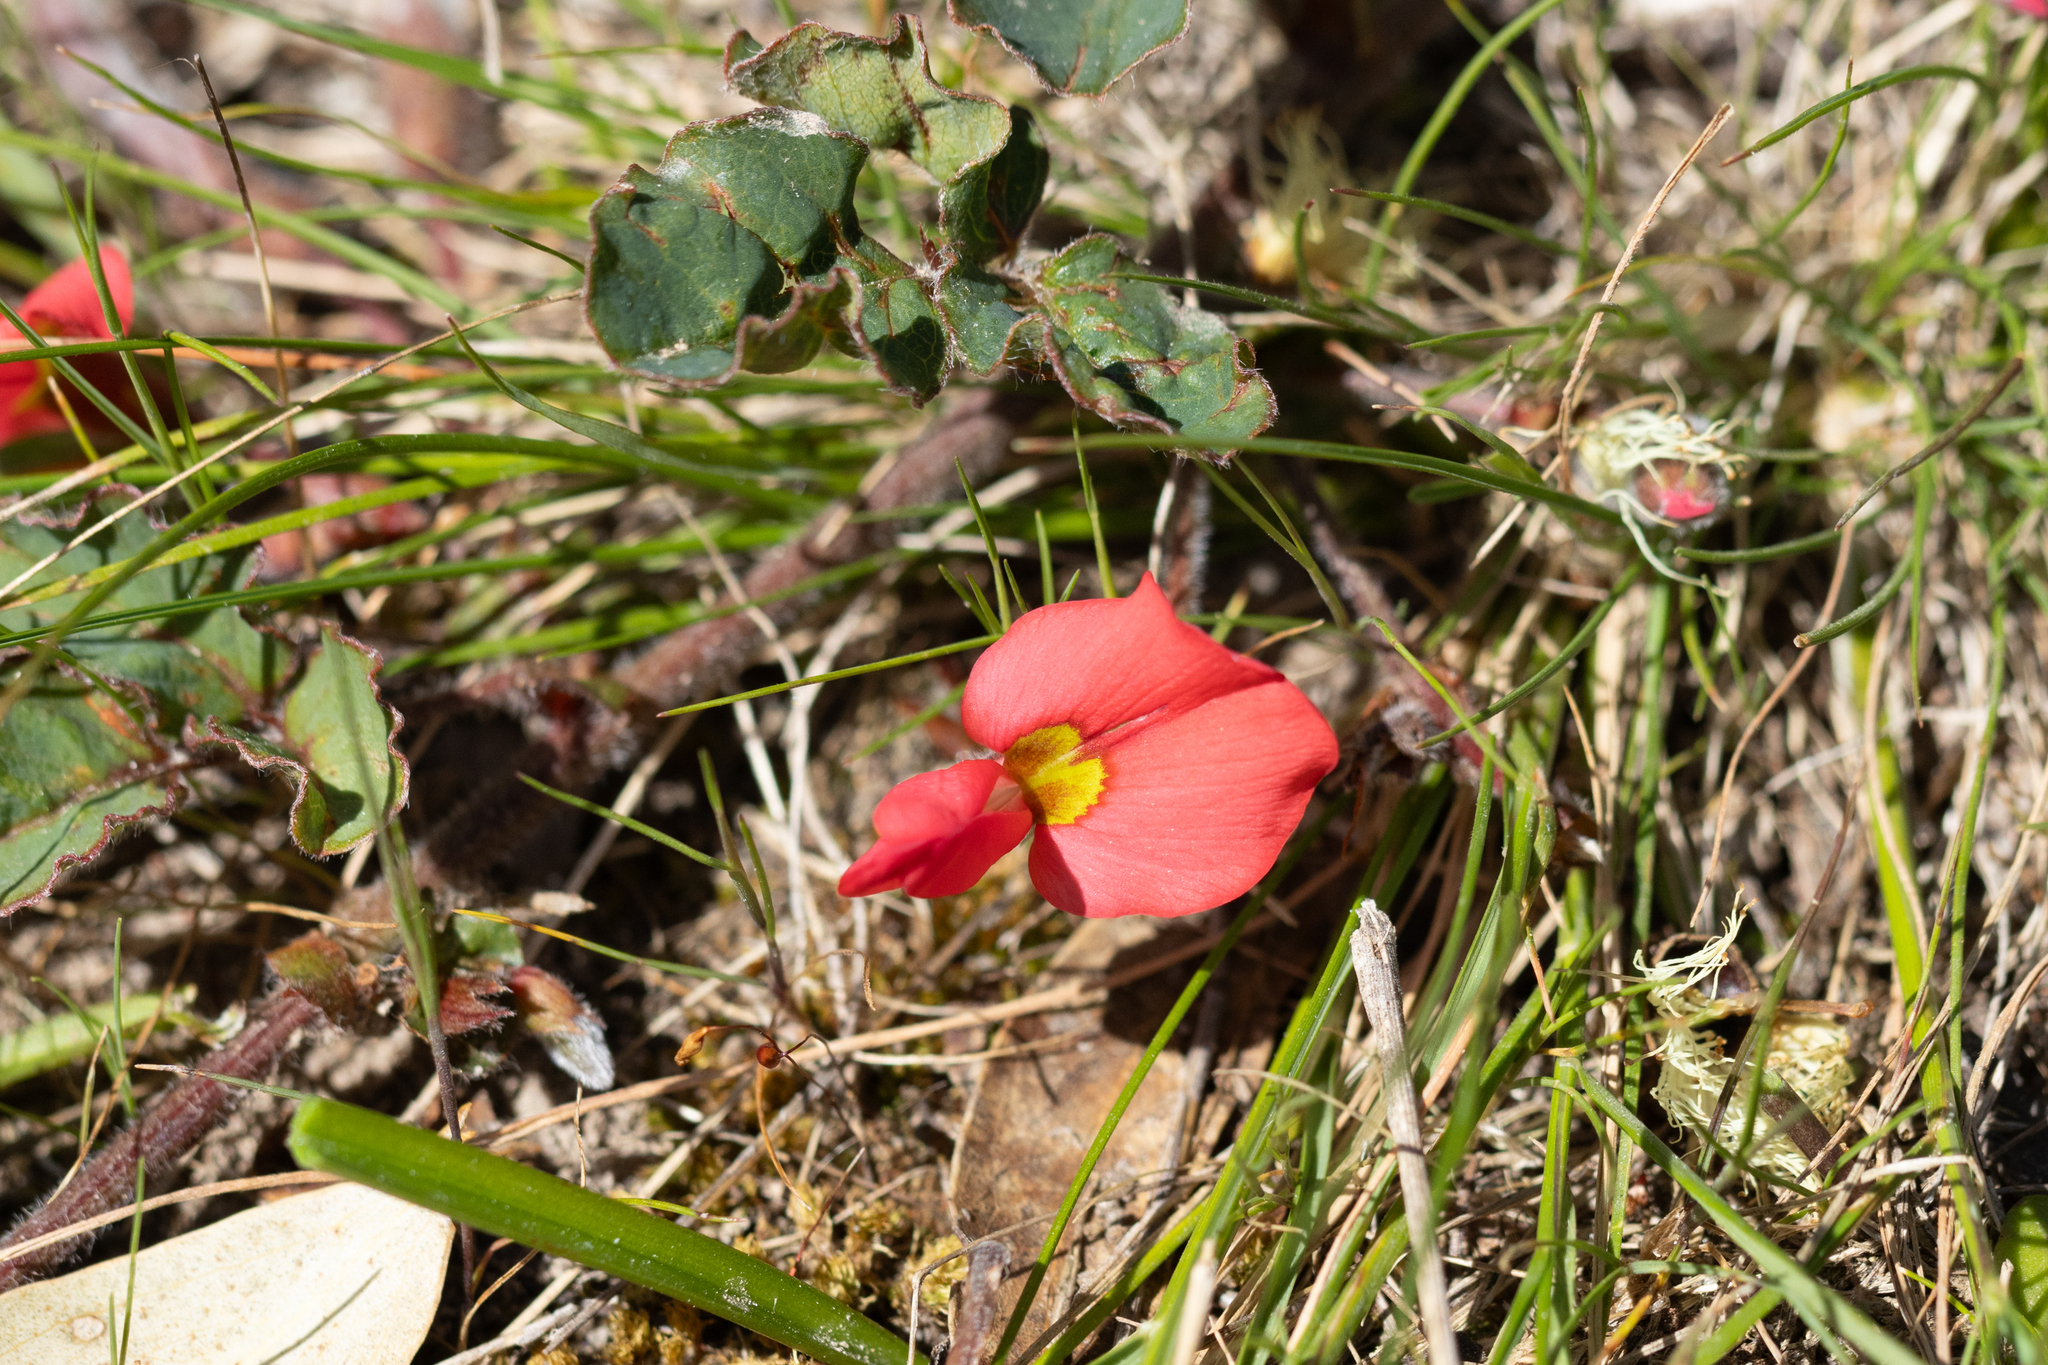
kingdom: Plantae
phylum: Tracheophyta
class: Magnoliopsida
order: Fabales
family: Fabaceae
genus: Kennedia
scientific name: Kennedia prostrata
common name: Running-postman
